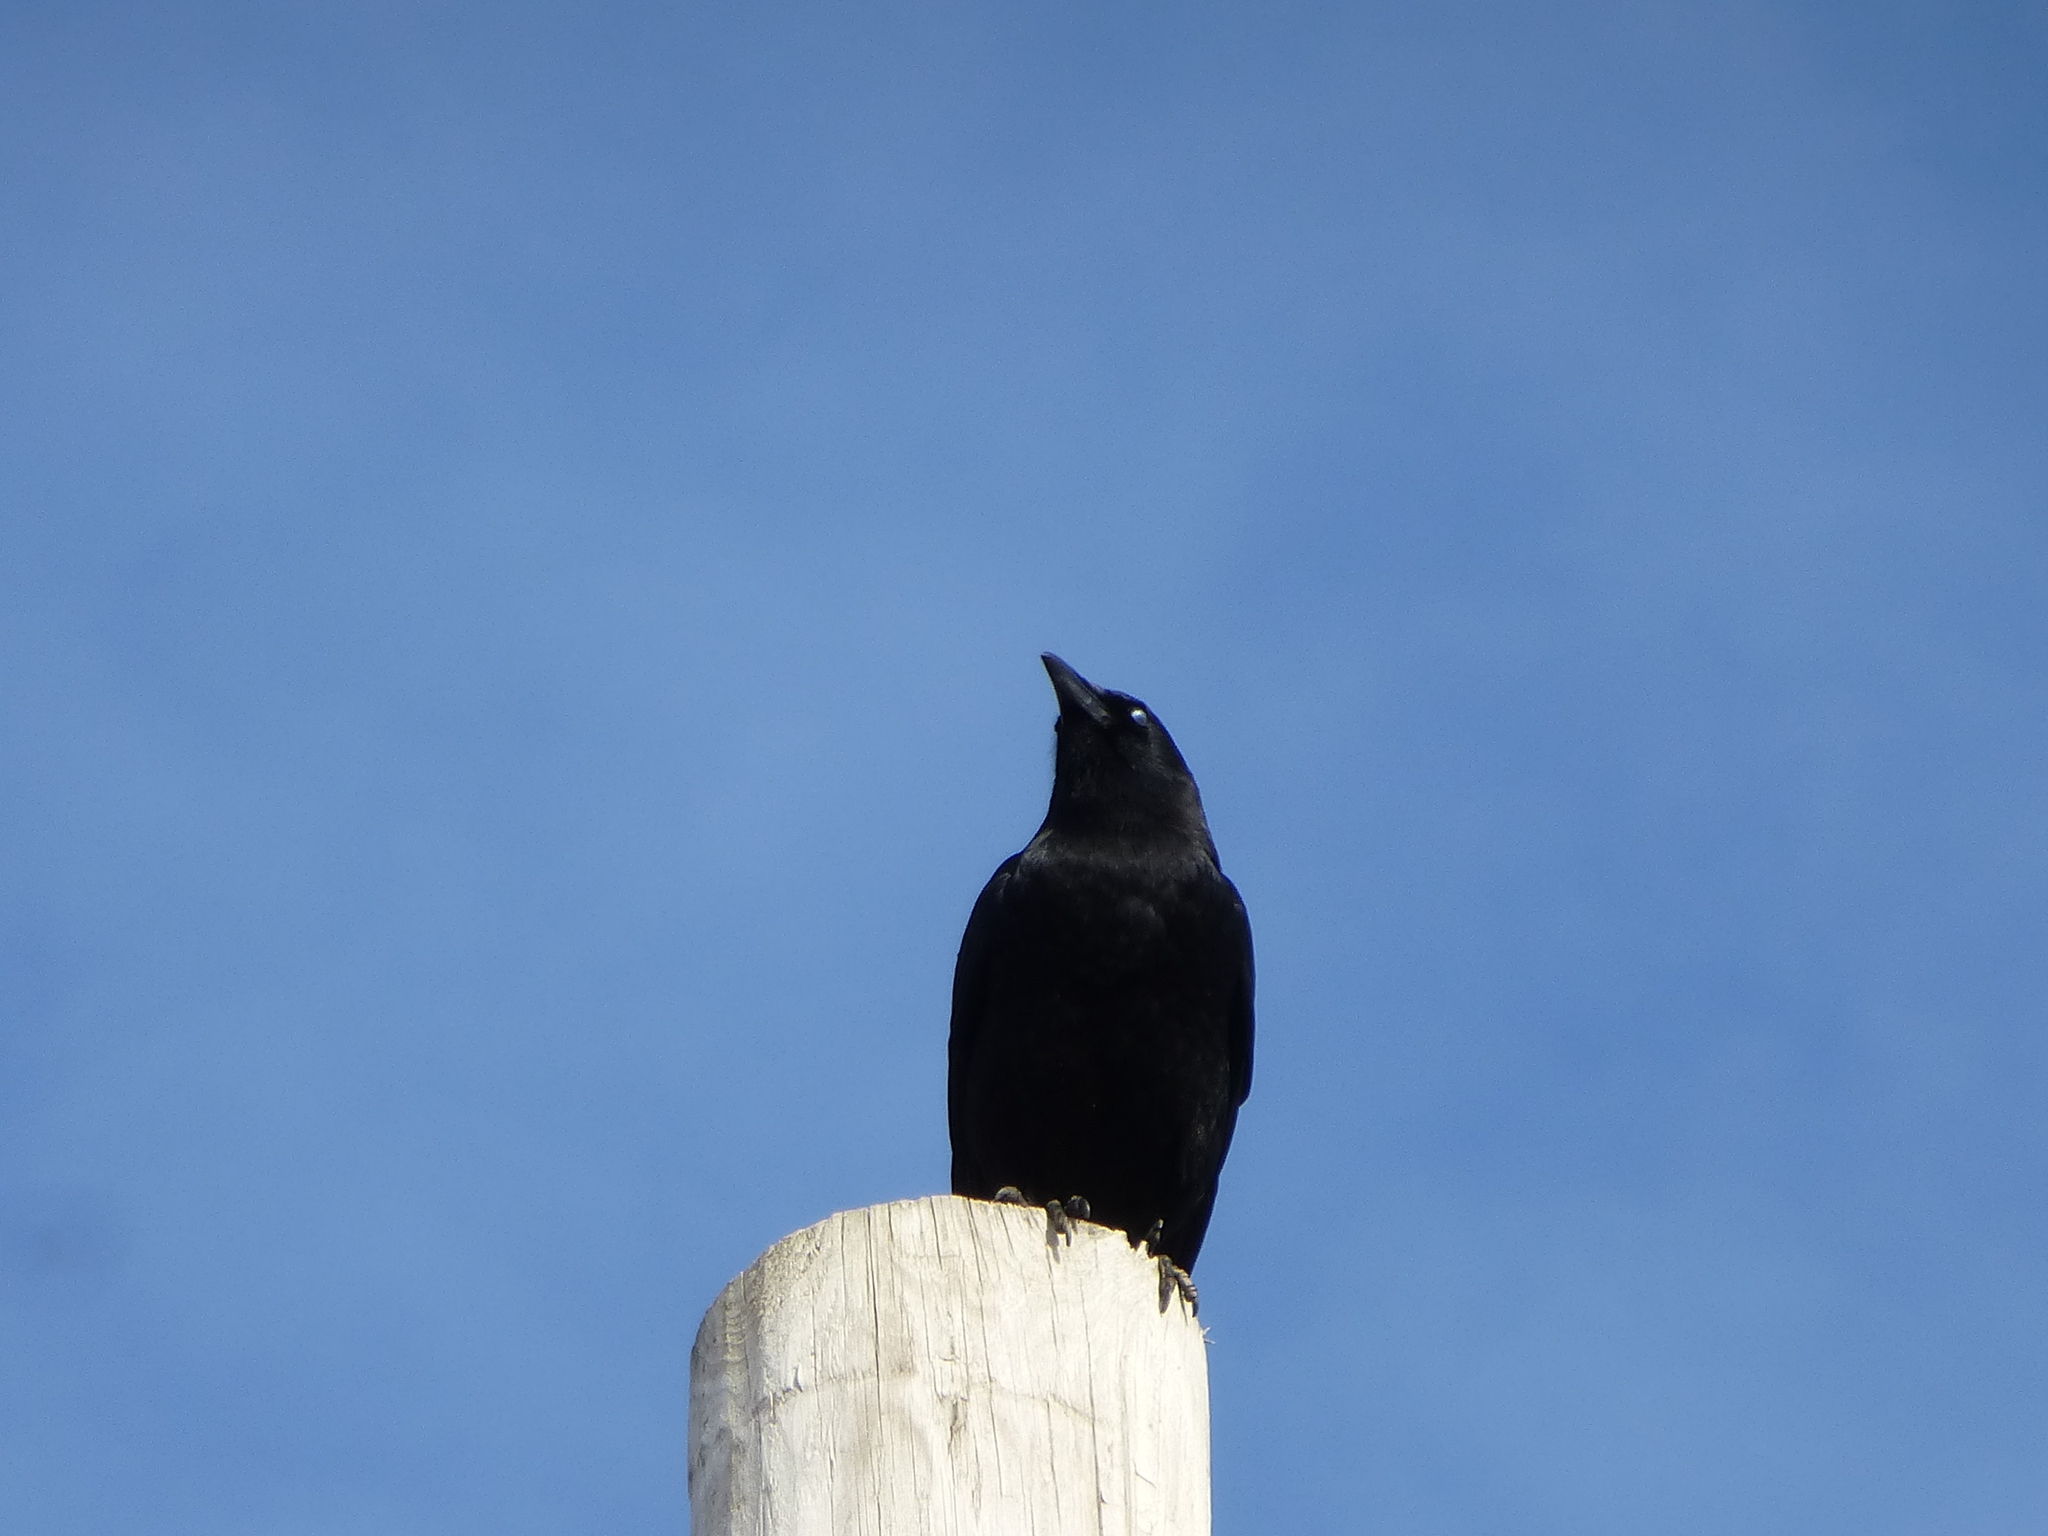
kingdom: Animalia
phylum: Chordata
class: Aves
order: Passeriformes
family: Corvidae
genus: Corvus
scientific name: Corvus brachyrhynchos
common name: American crow
